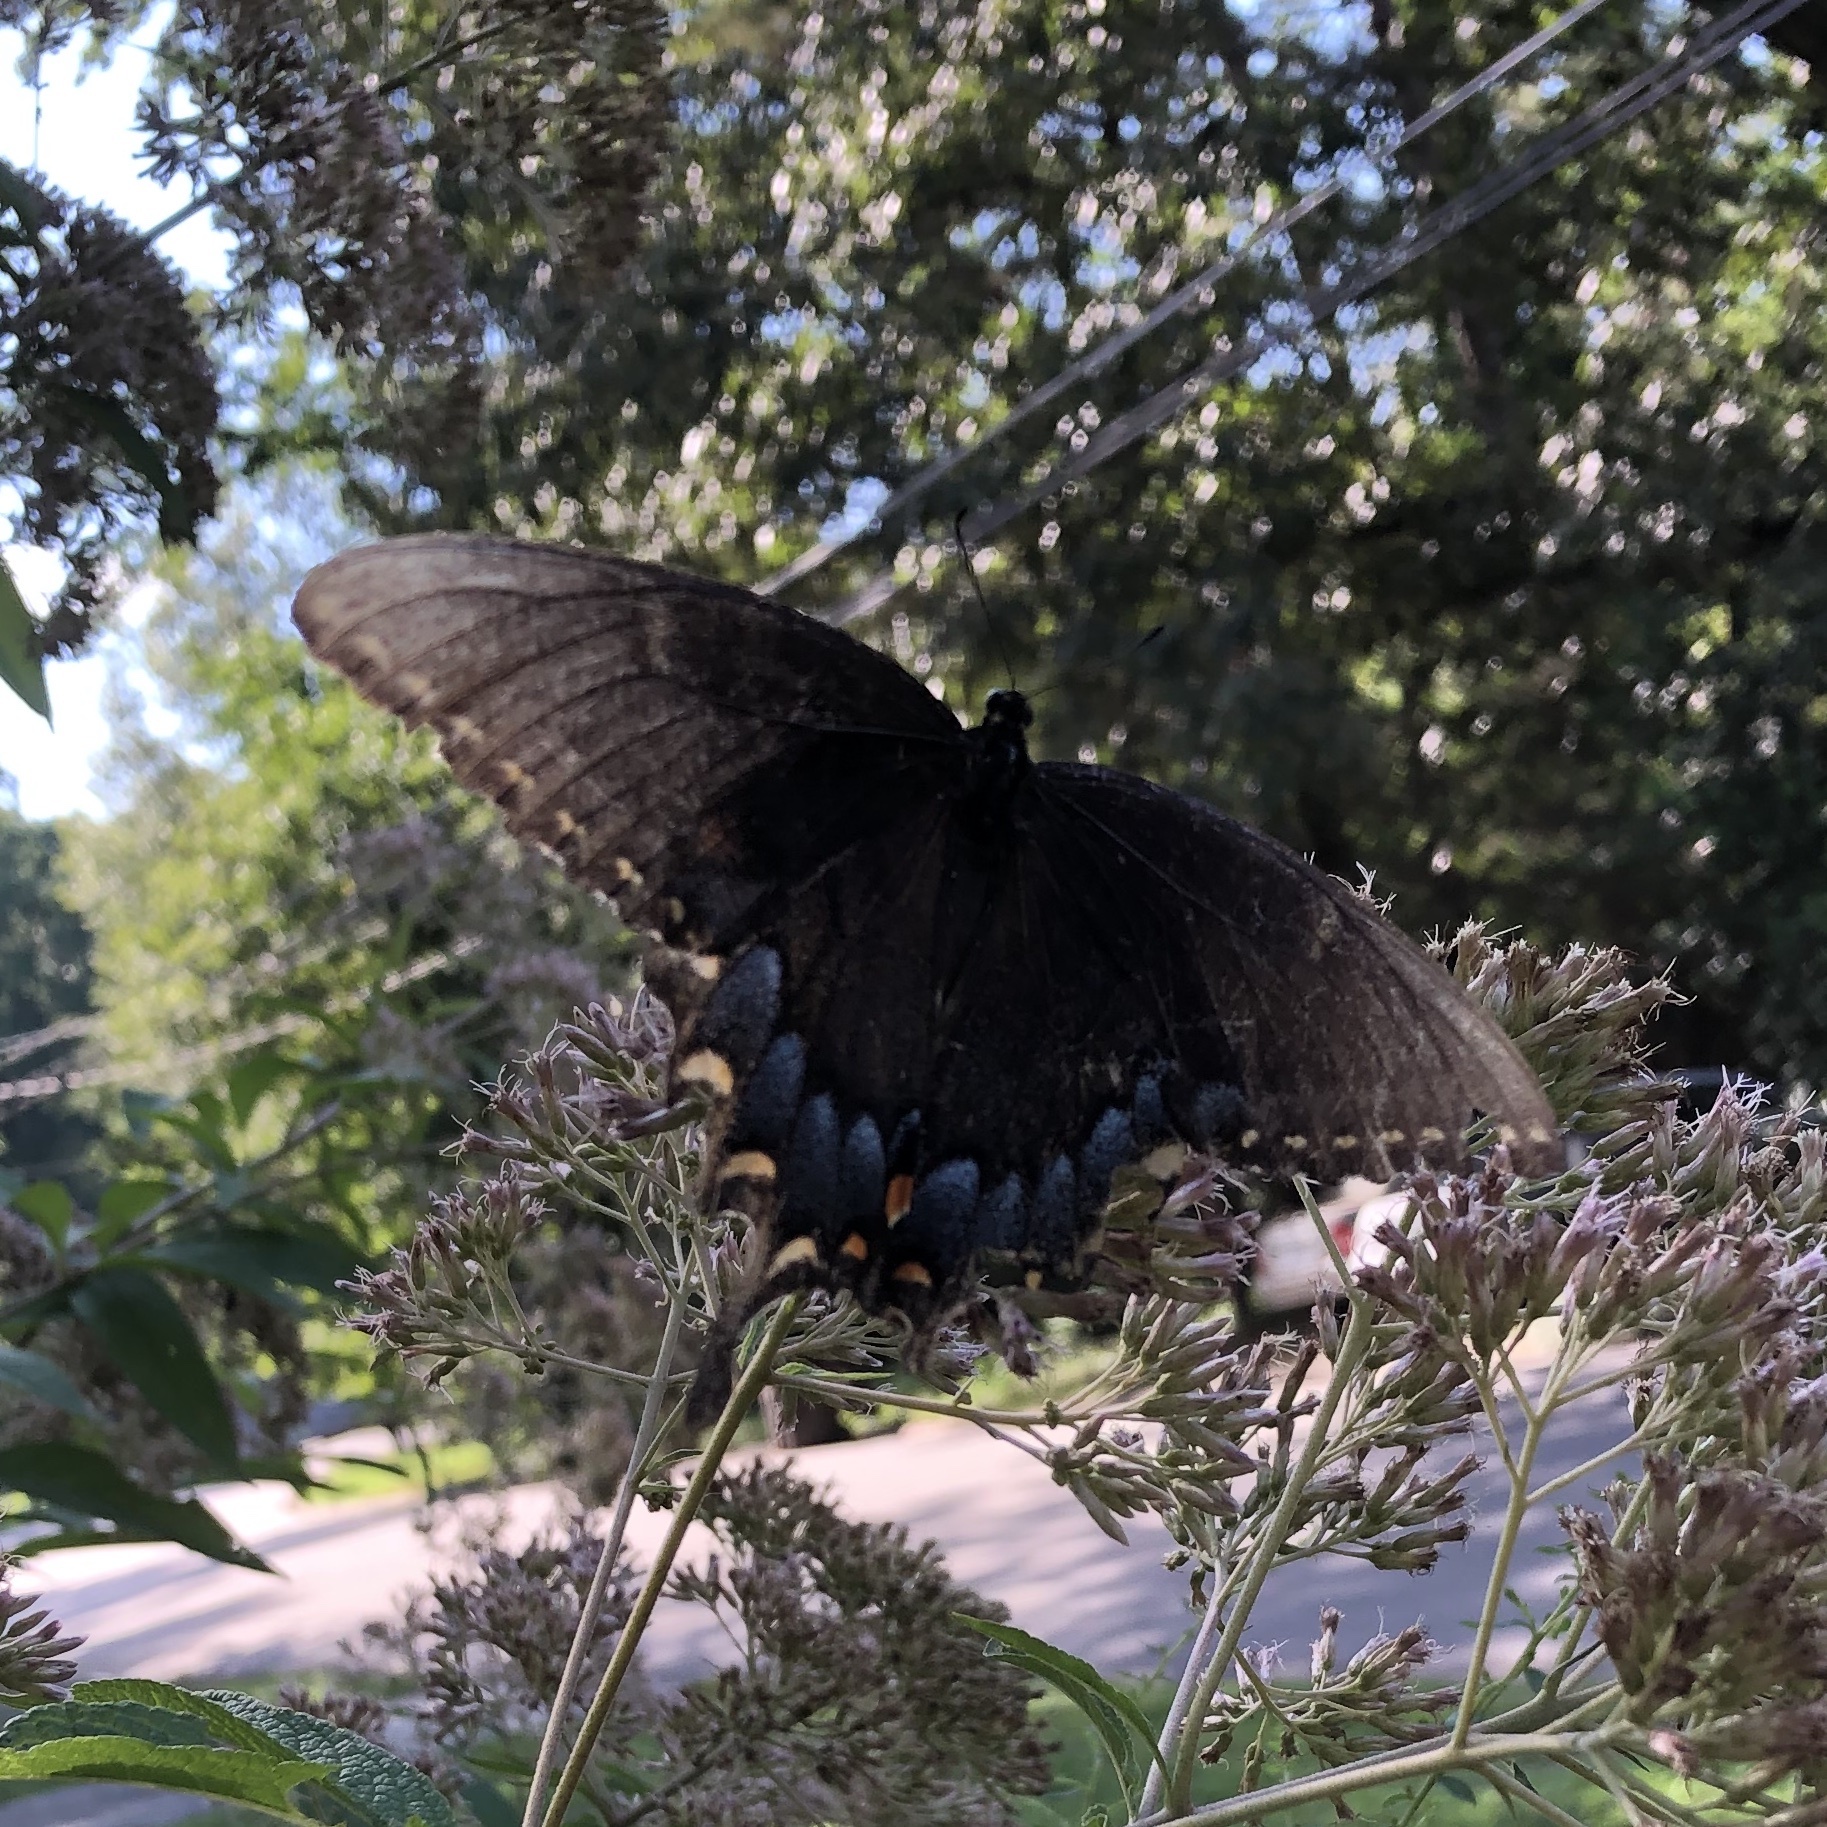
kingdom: Animalia
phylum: Arthropoda
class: Insecta
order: Lepidoptera
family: Papilionidae
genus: Papilio
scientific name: Papilio glaucus
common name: Tiger swallowtail
